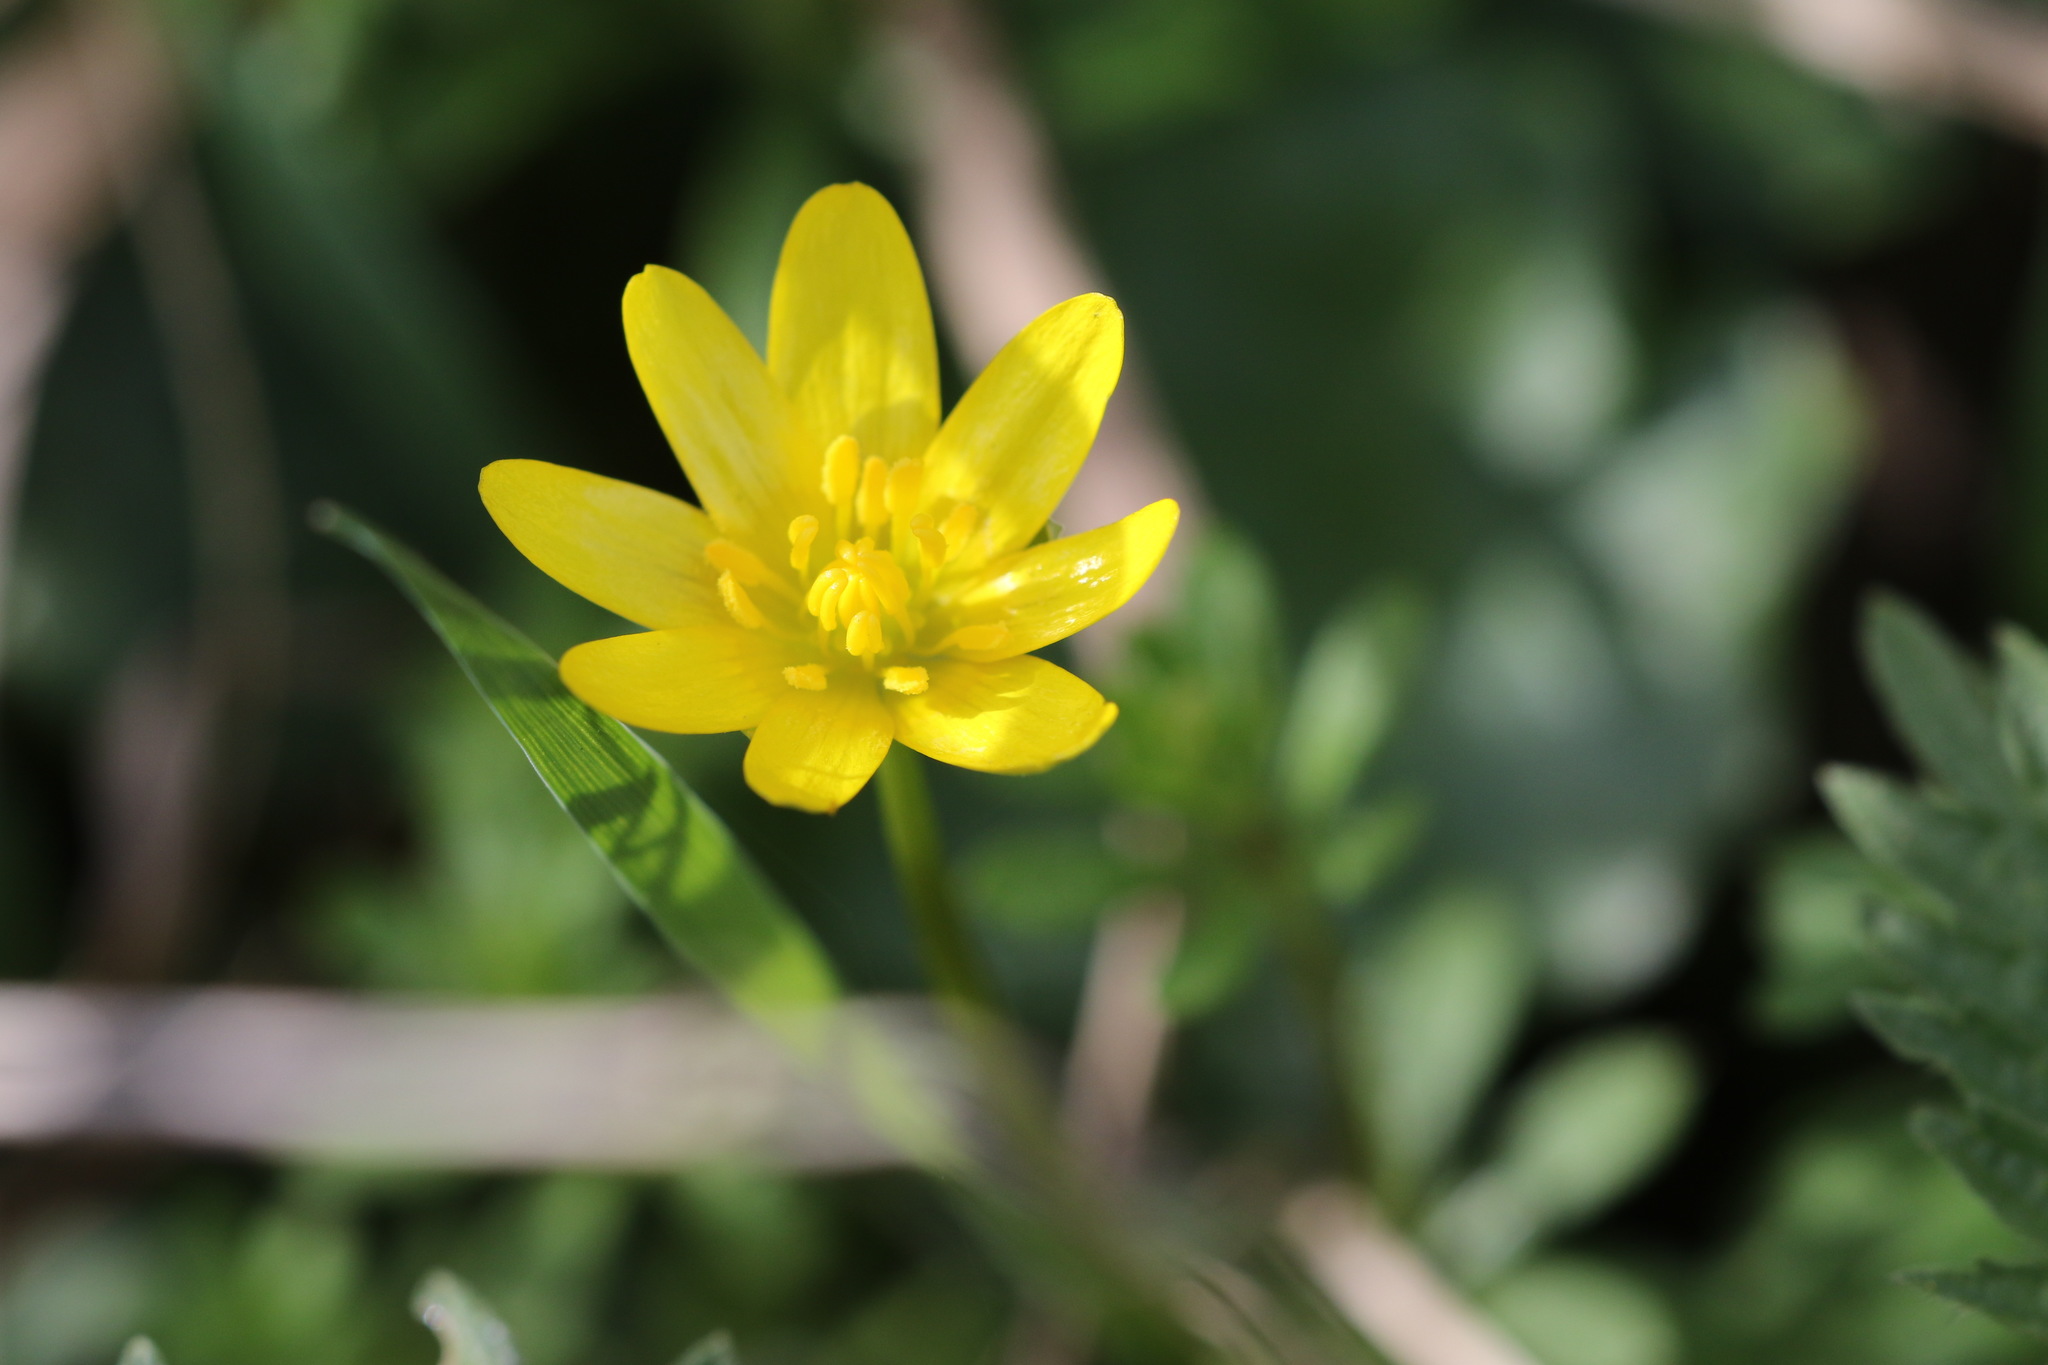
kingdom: Plantae
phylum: Tracheophyta
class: Magnoliopsida
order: Ranunculales
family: Ranunculaceae
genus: Ficaria
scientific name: Ficaria verna
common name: Lesser celandine
